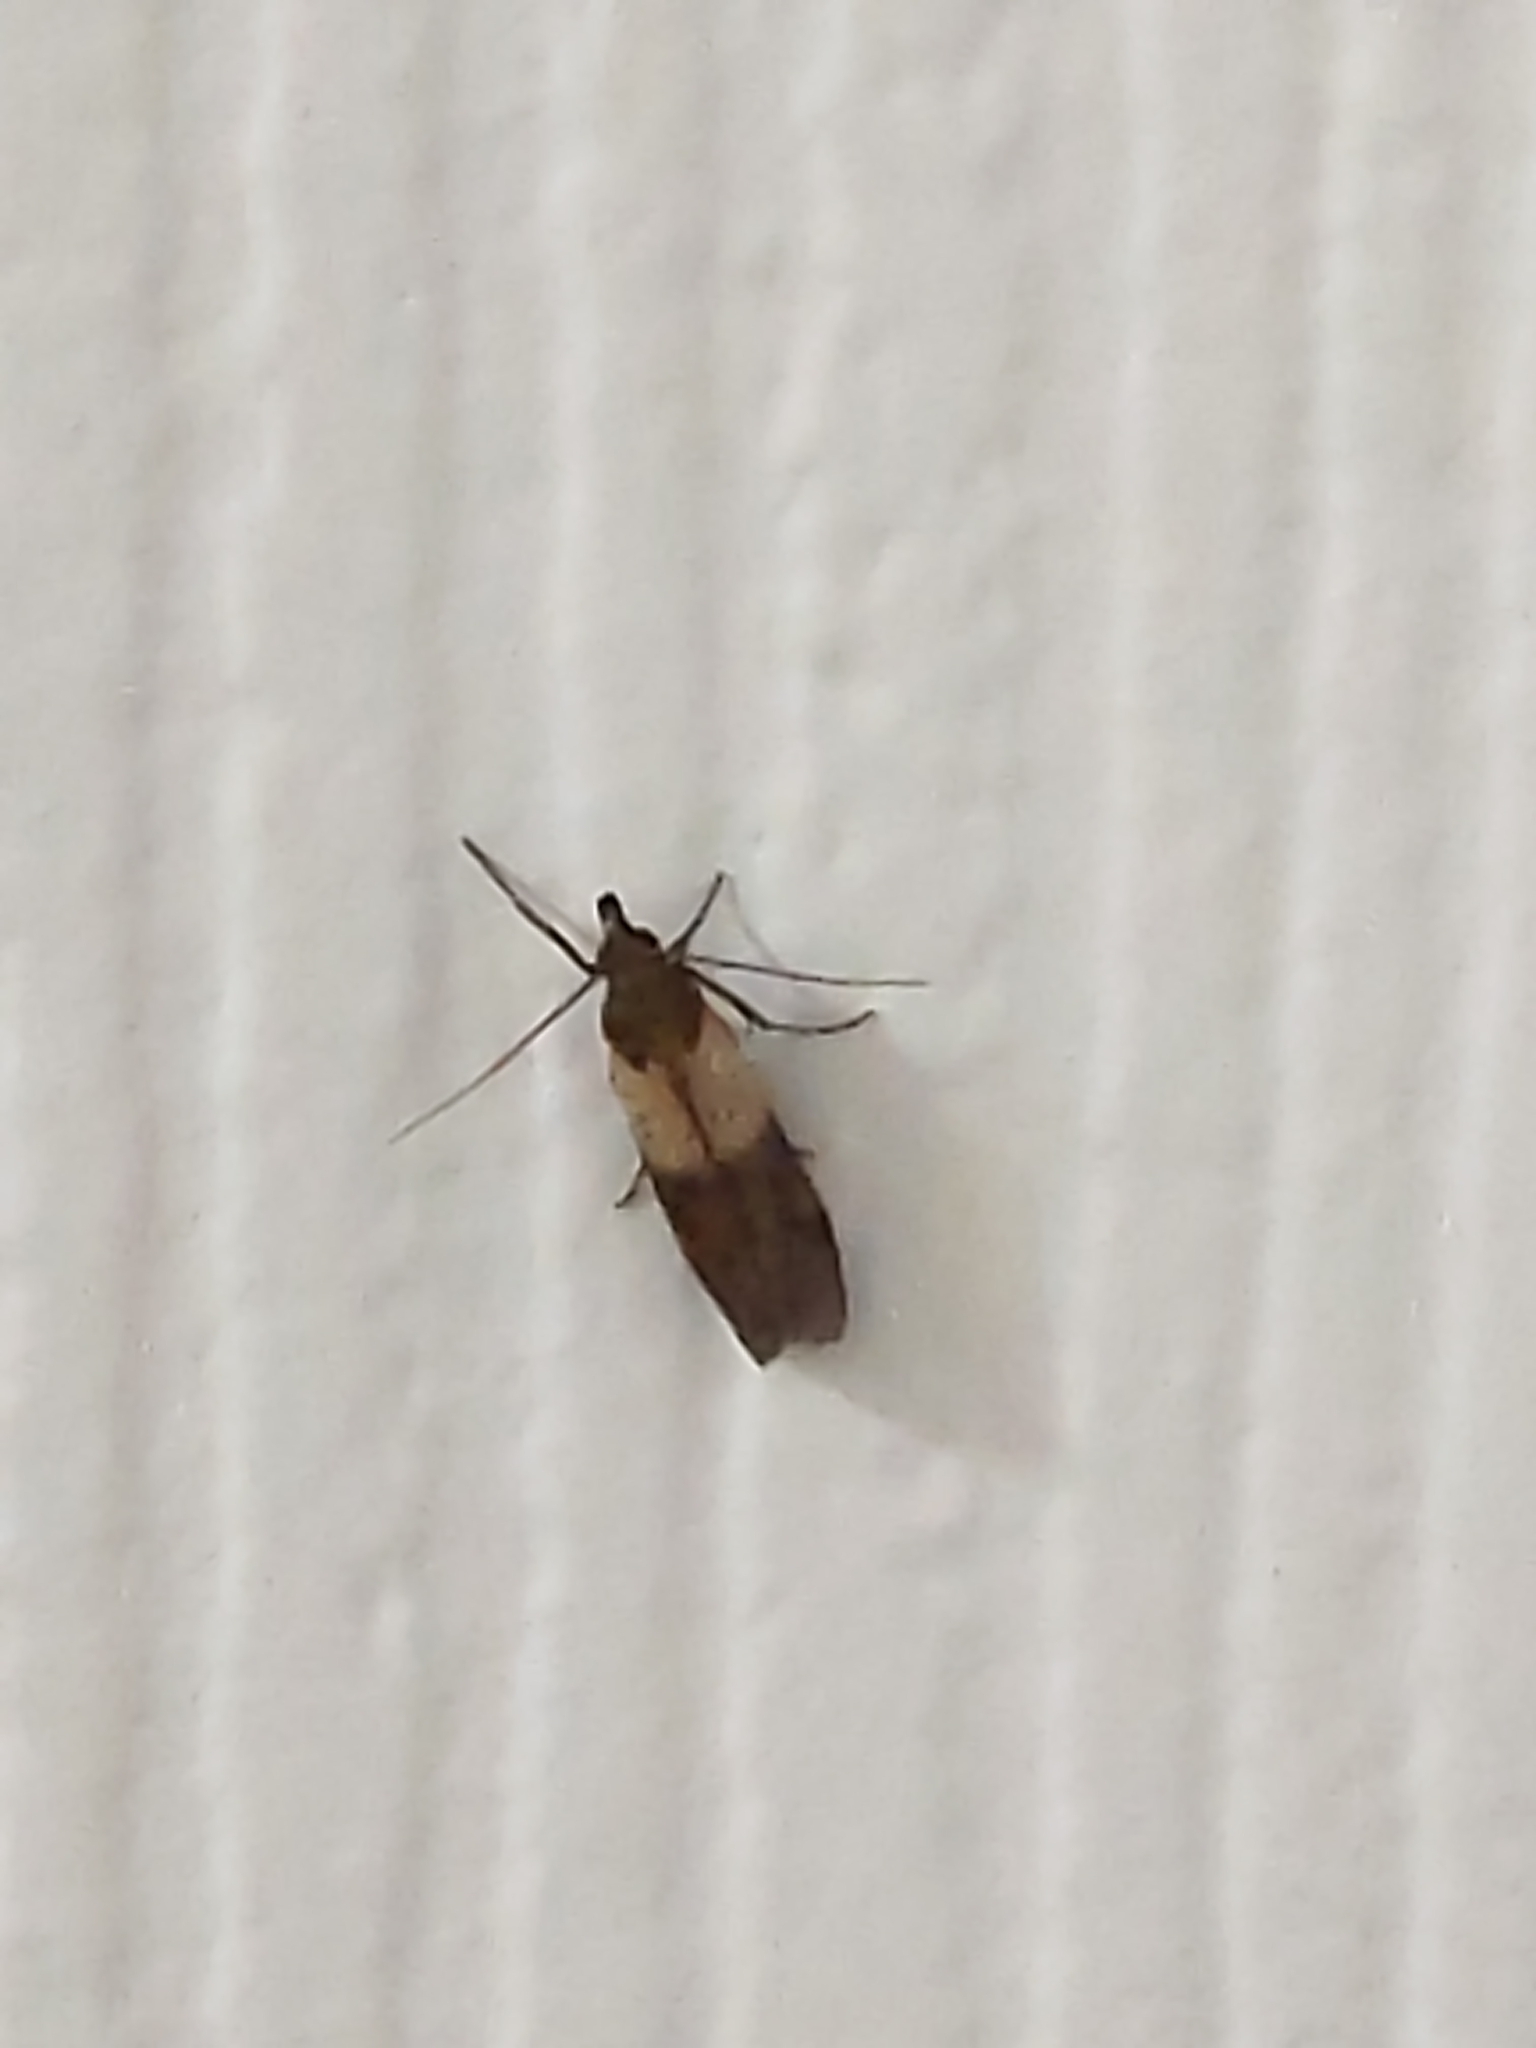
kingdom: Animalia
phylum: Arthropoda
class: Insecta
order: Lepidoptera
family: Pyralidae
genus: Plodia
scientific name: Plodia interpunctella
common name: Indian meal moth
